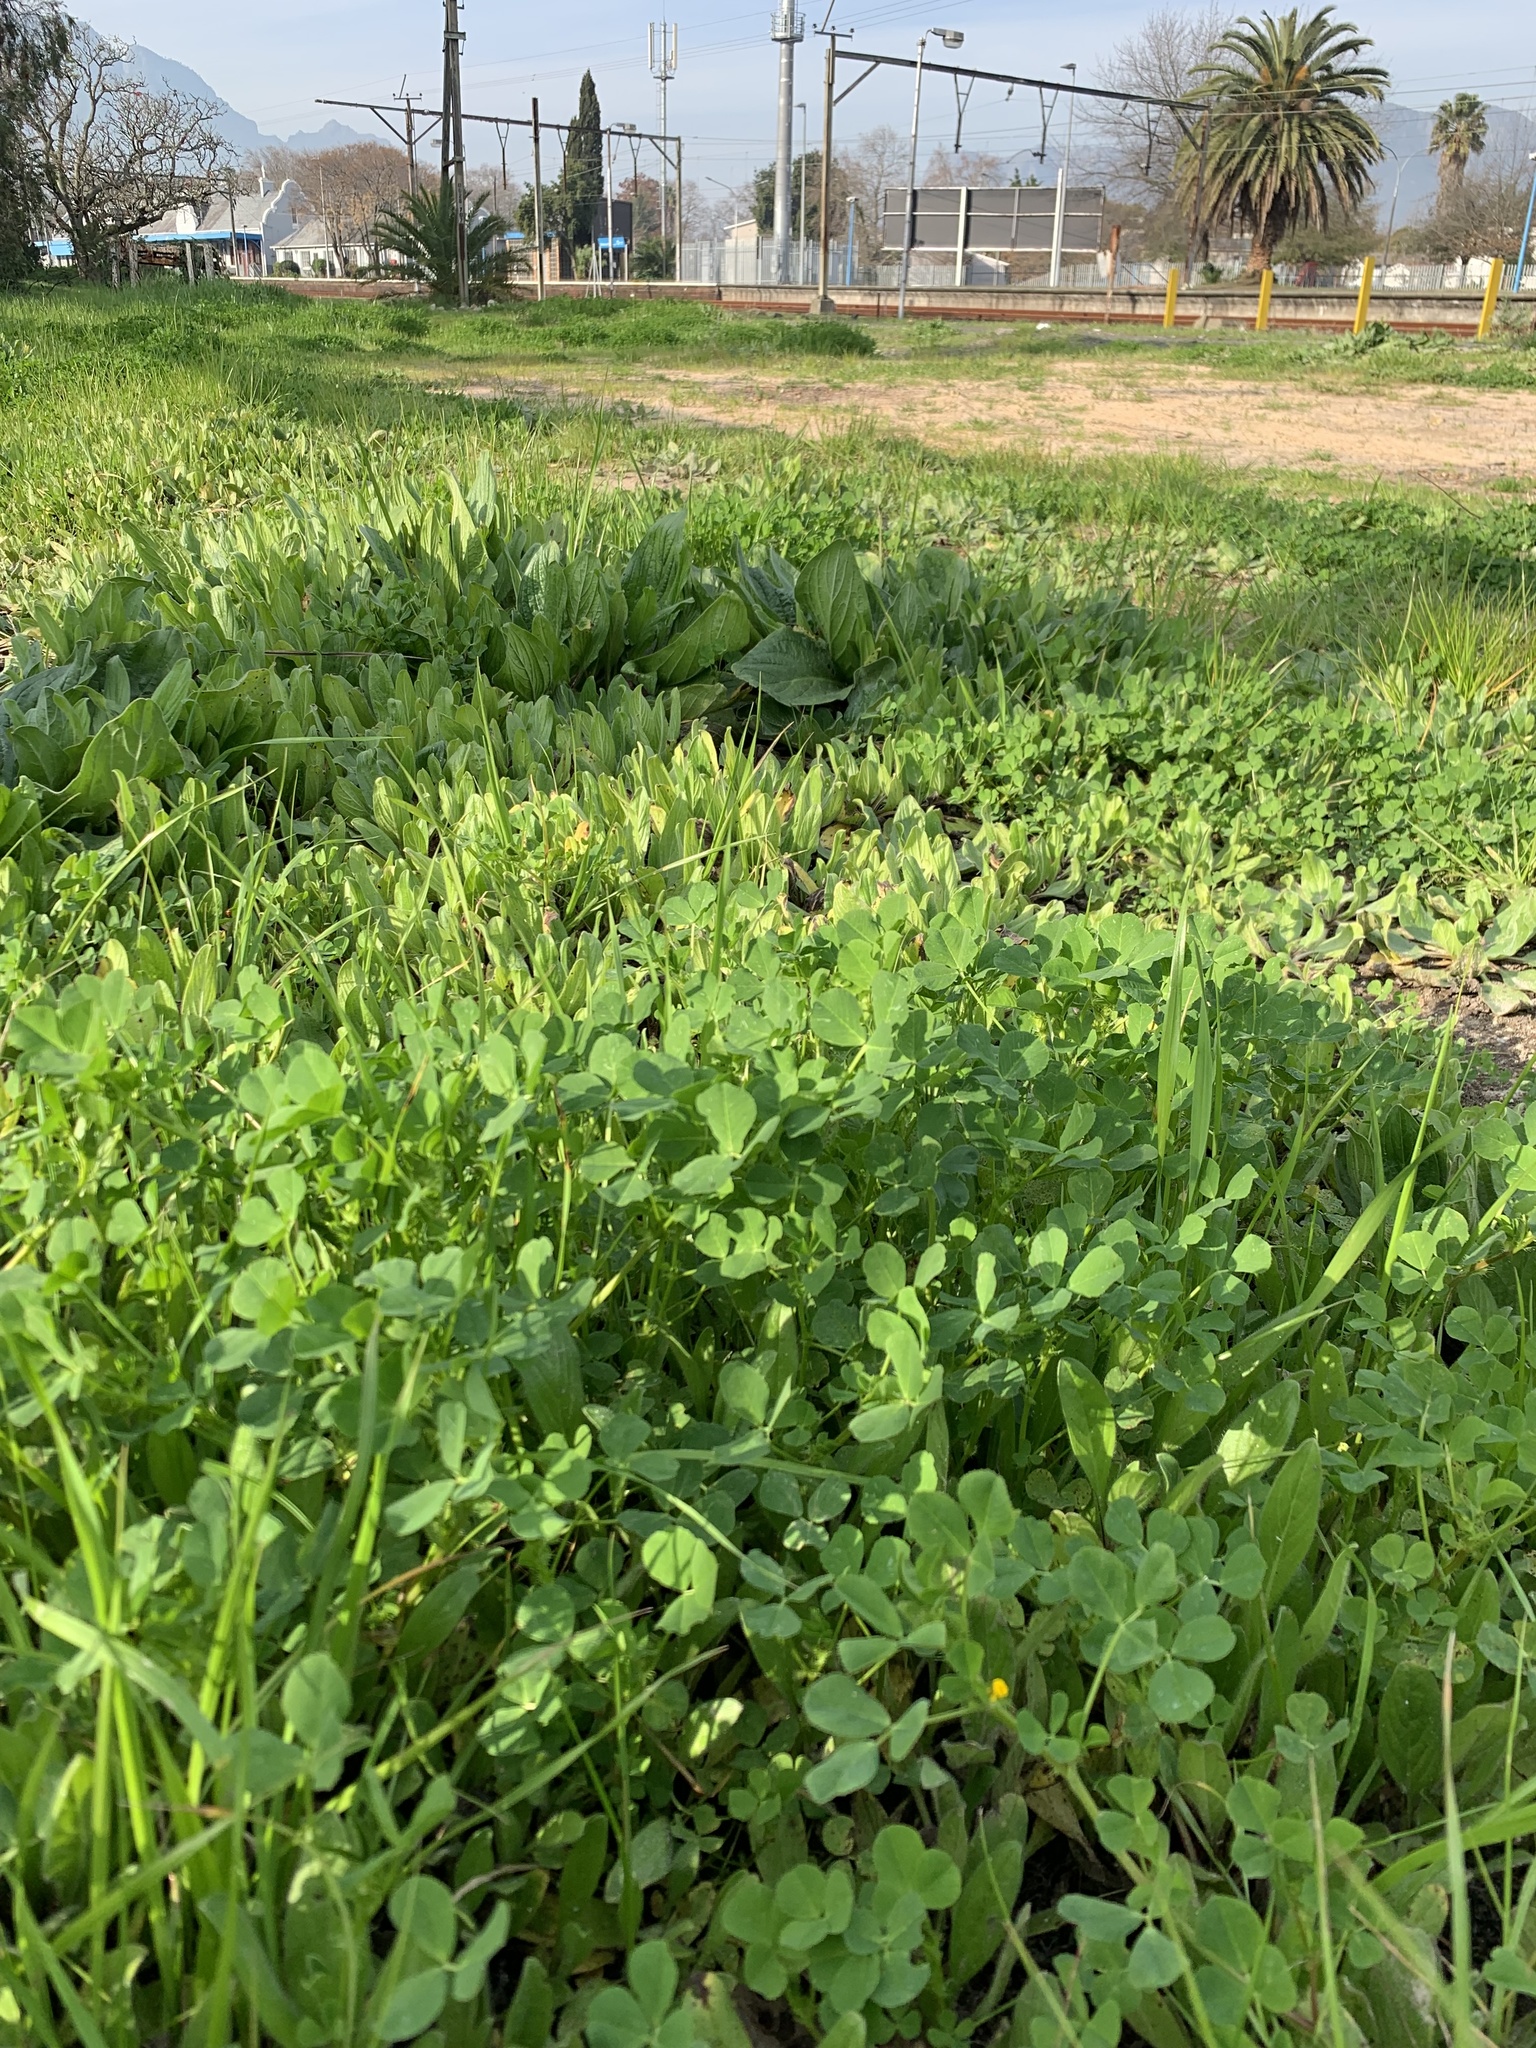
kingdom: Plantae
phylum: Tracheophyta
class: Magnoliopsida
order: Fabales
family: Fabaceae
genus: Medicago
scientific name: Medicago polymorpha
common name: Burclover
